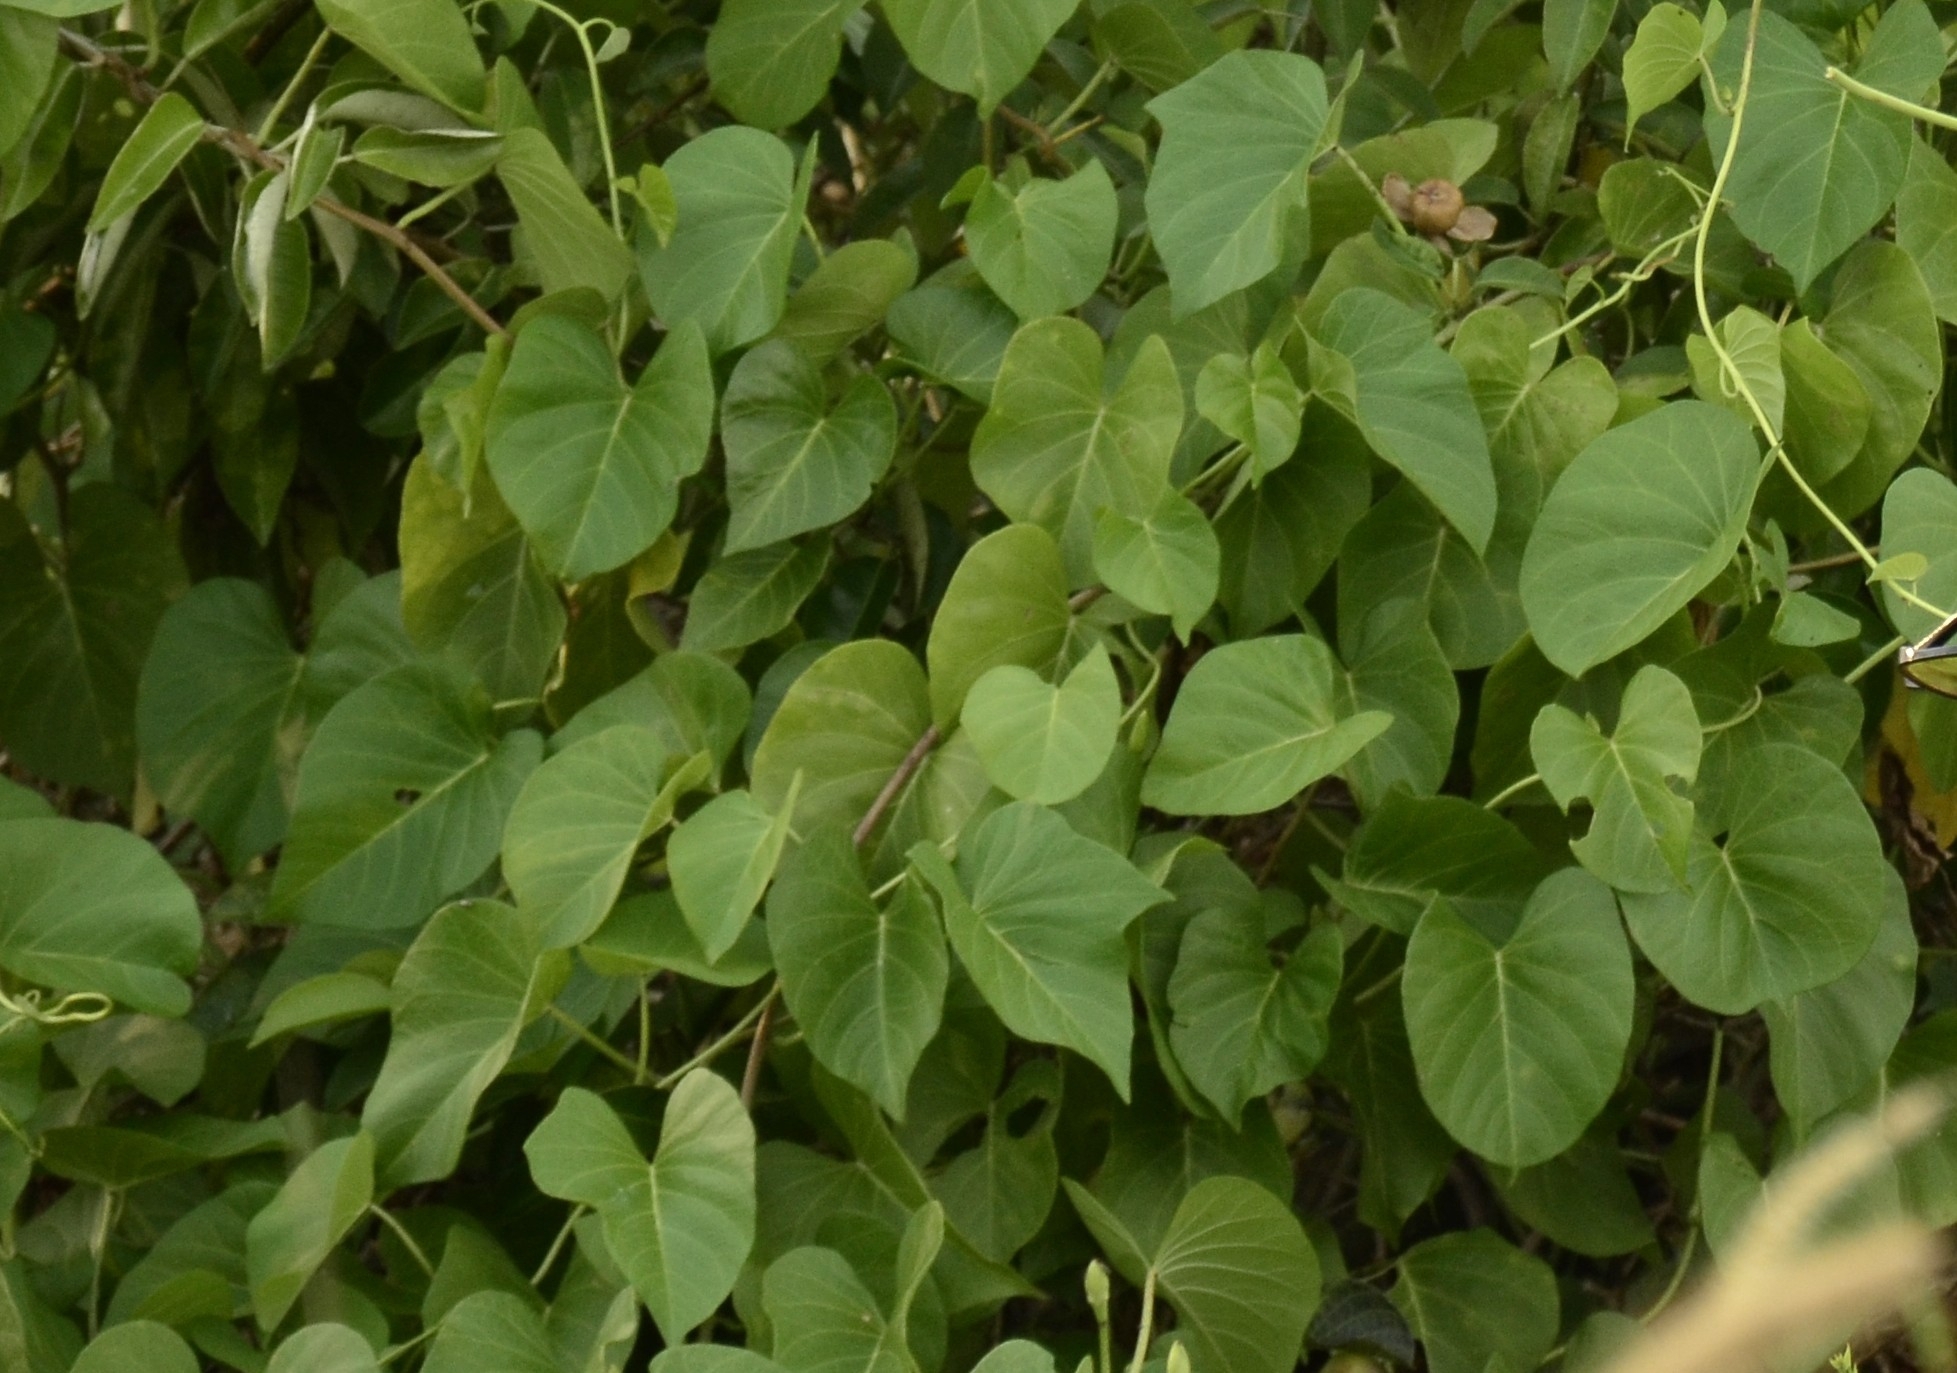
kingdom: Plantae
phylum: Tracheophyta
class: Magnoliopsida
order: Solanales
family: Convolvulaceae
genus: Ipomoea
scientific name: Ipomoea violacea
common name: Beach moonflower
